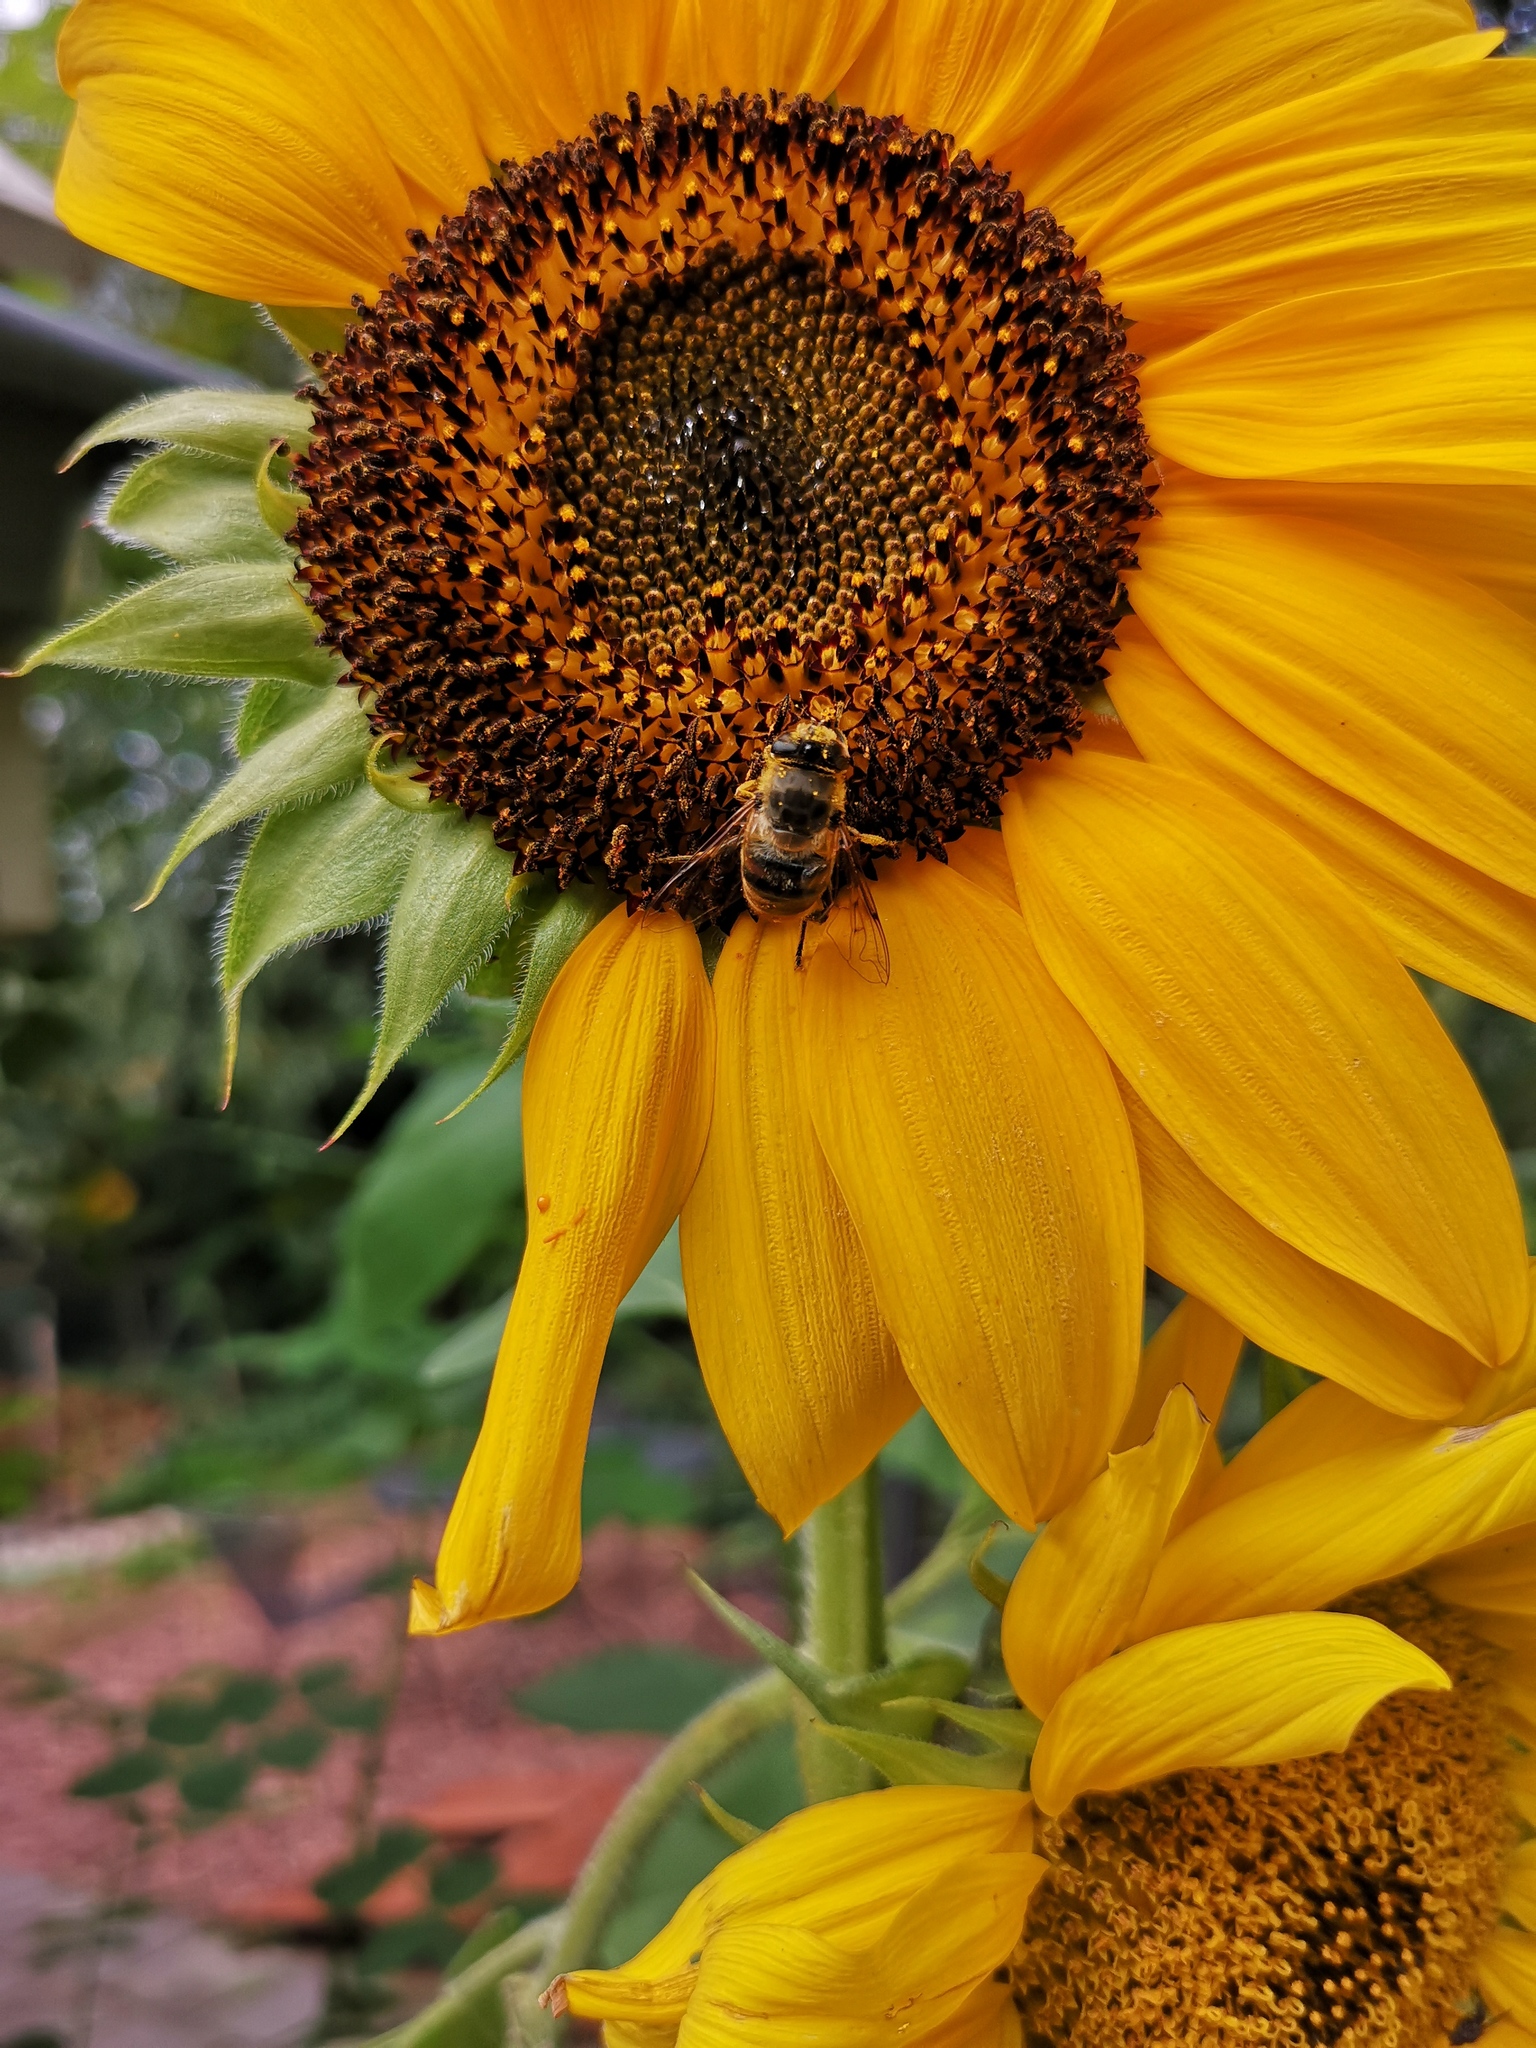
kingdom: Animalia
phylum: Arthropoda
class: Insecta
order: Diptera
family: Syrphidae
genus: Eristalis
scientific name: Eristalis tenax
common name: Drone fly
